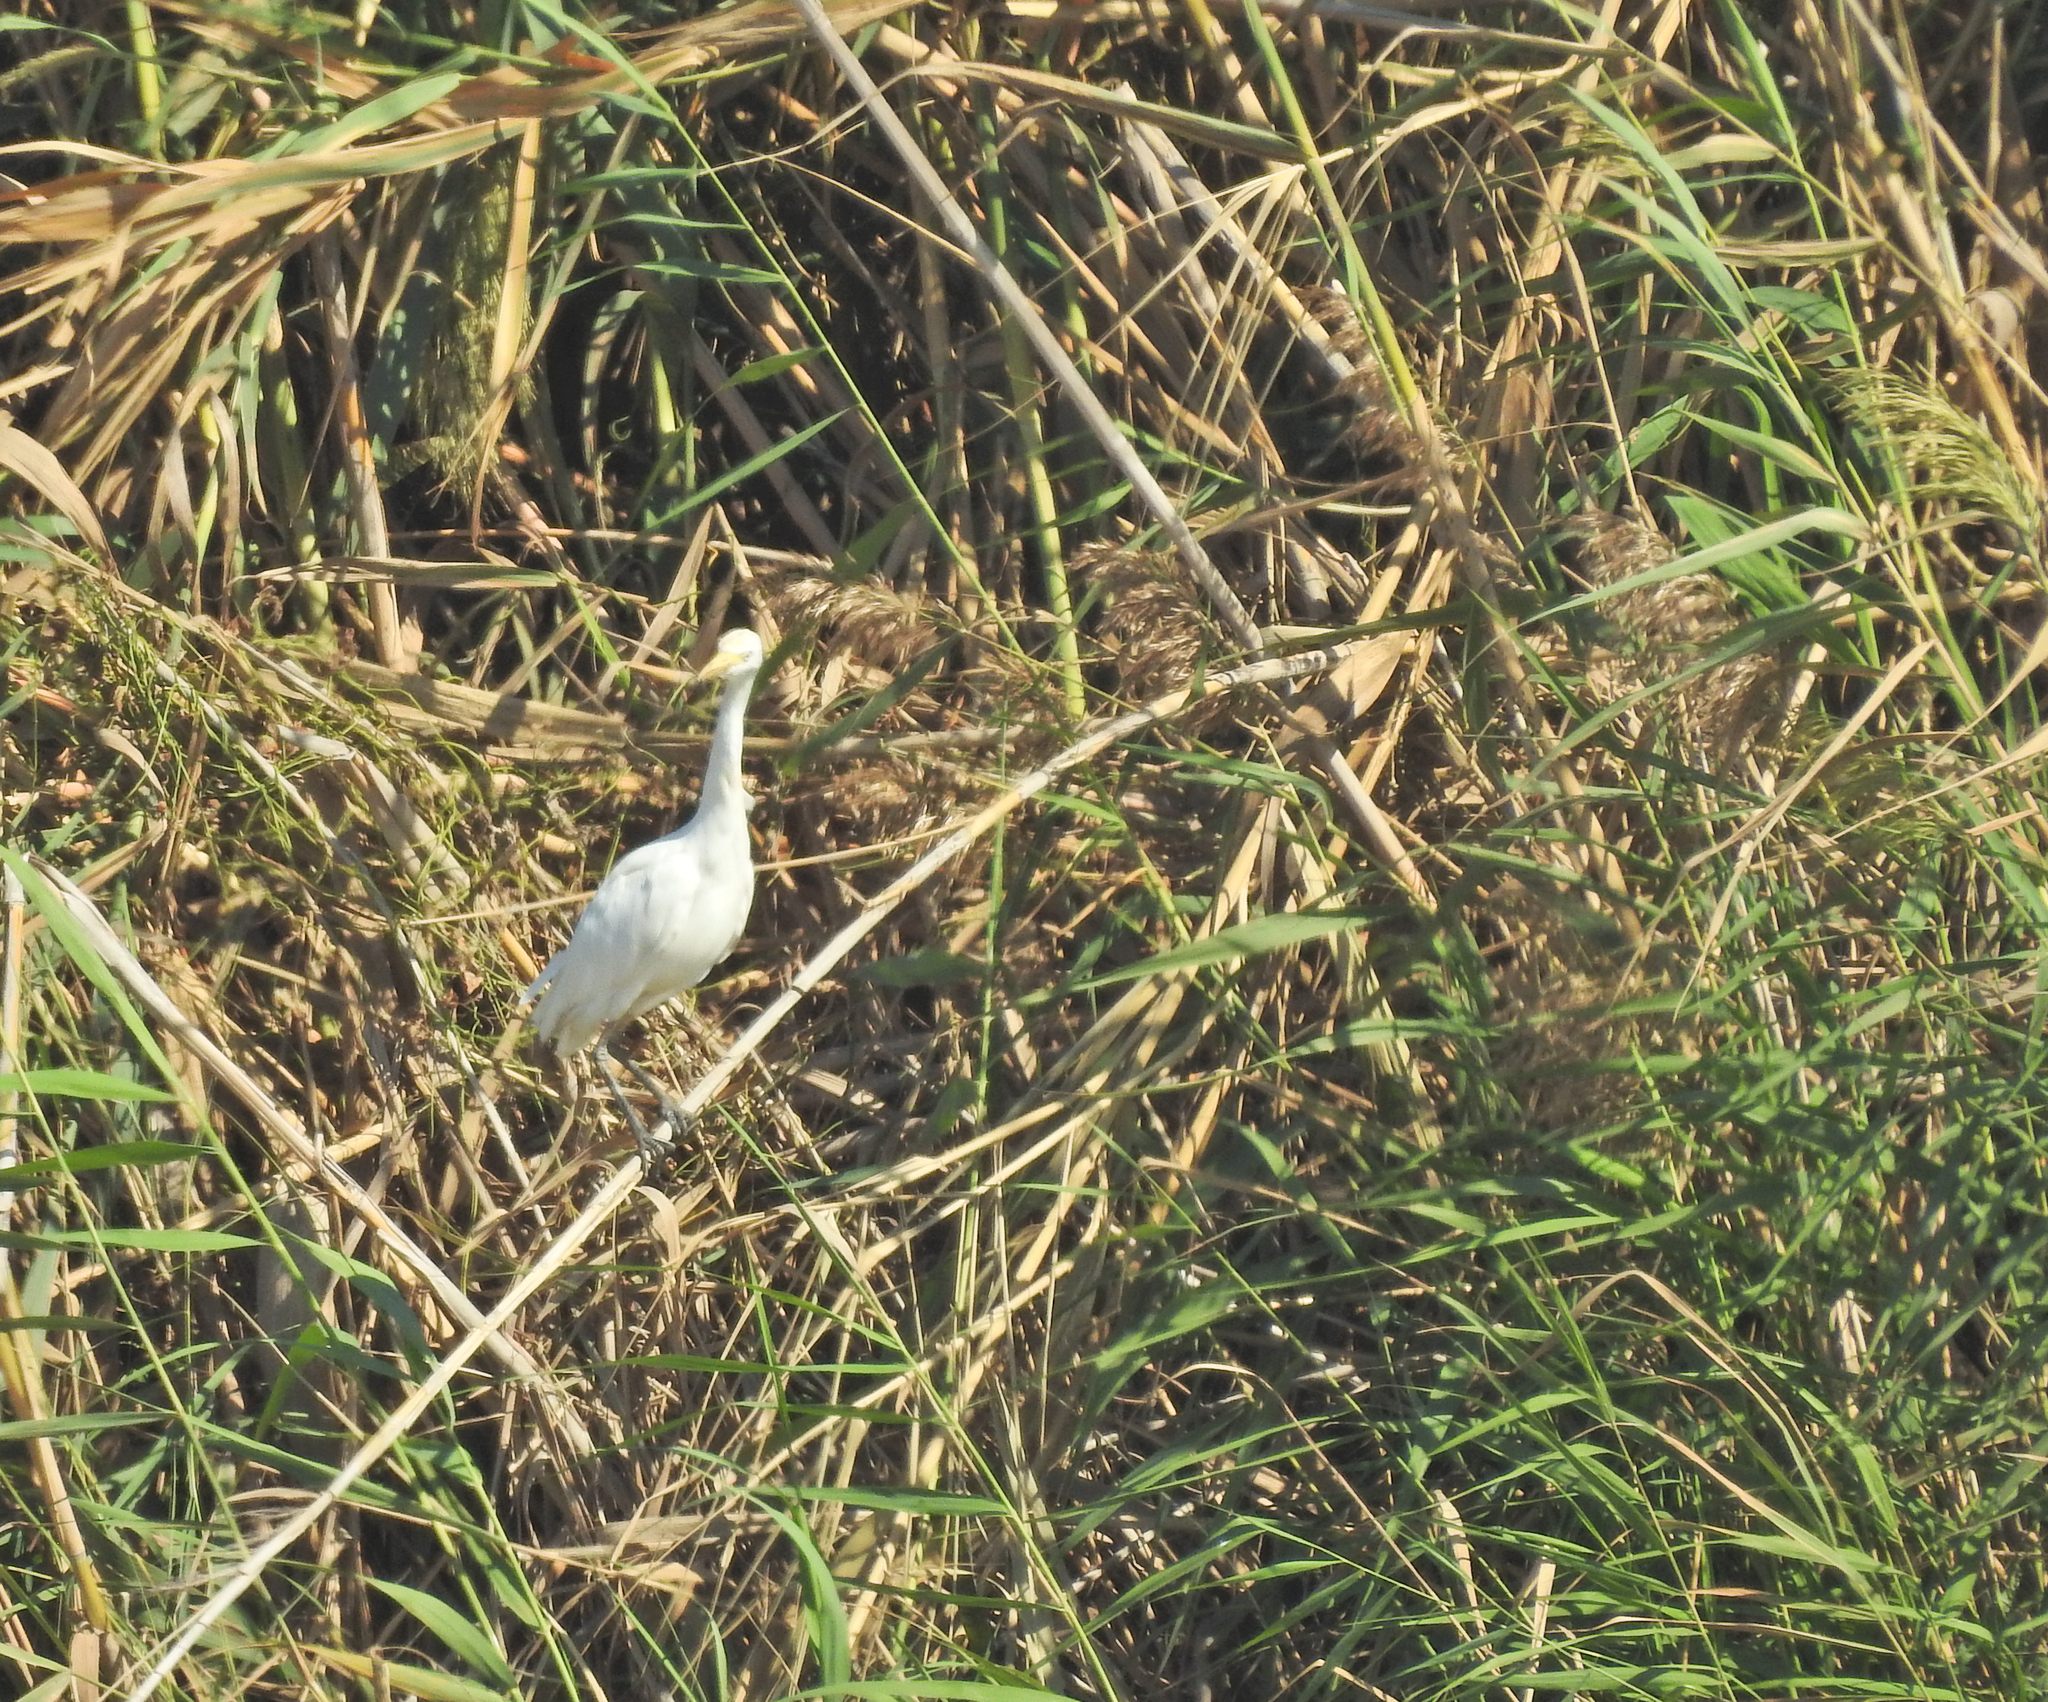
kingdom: Animalia
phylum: Chordata
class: Aves
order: Pelecaniformes
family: Ardeidae
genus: Bubulcus
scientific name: Bubulcus ibis
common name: Cattle egret
